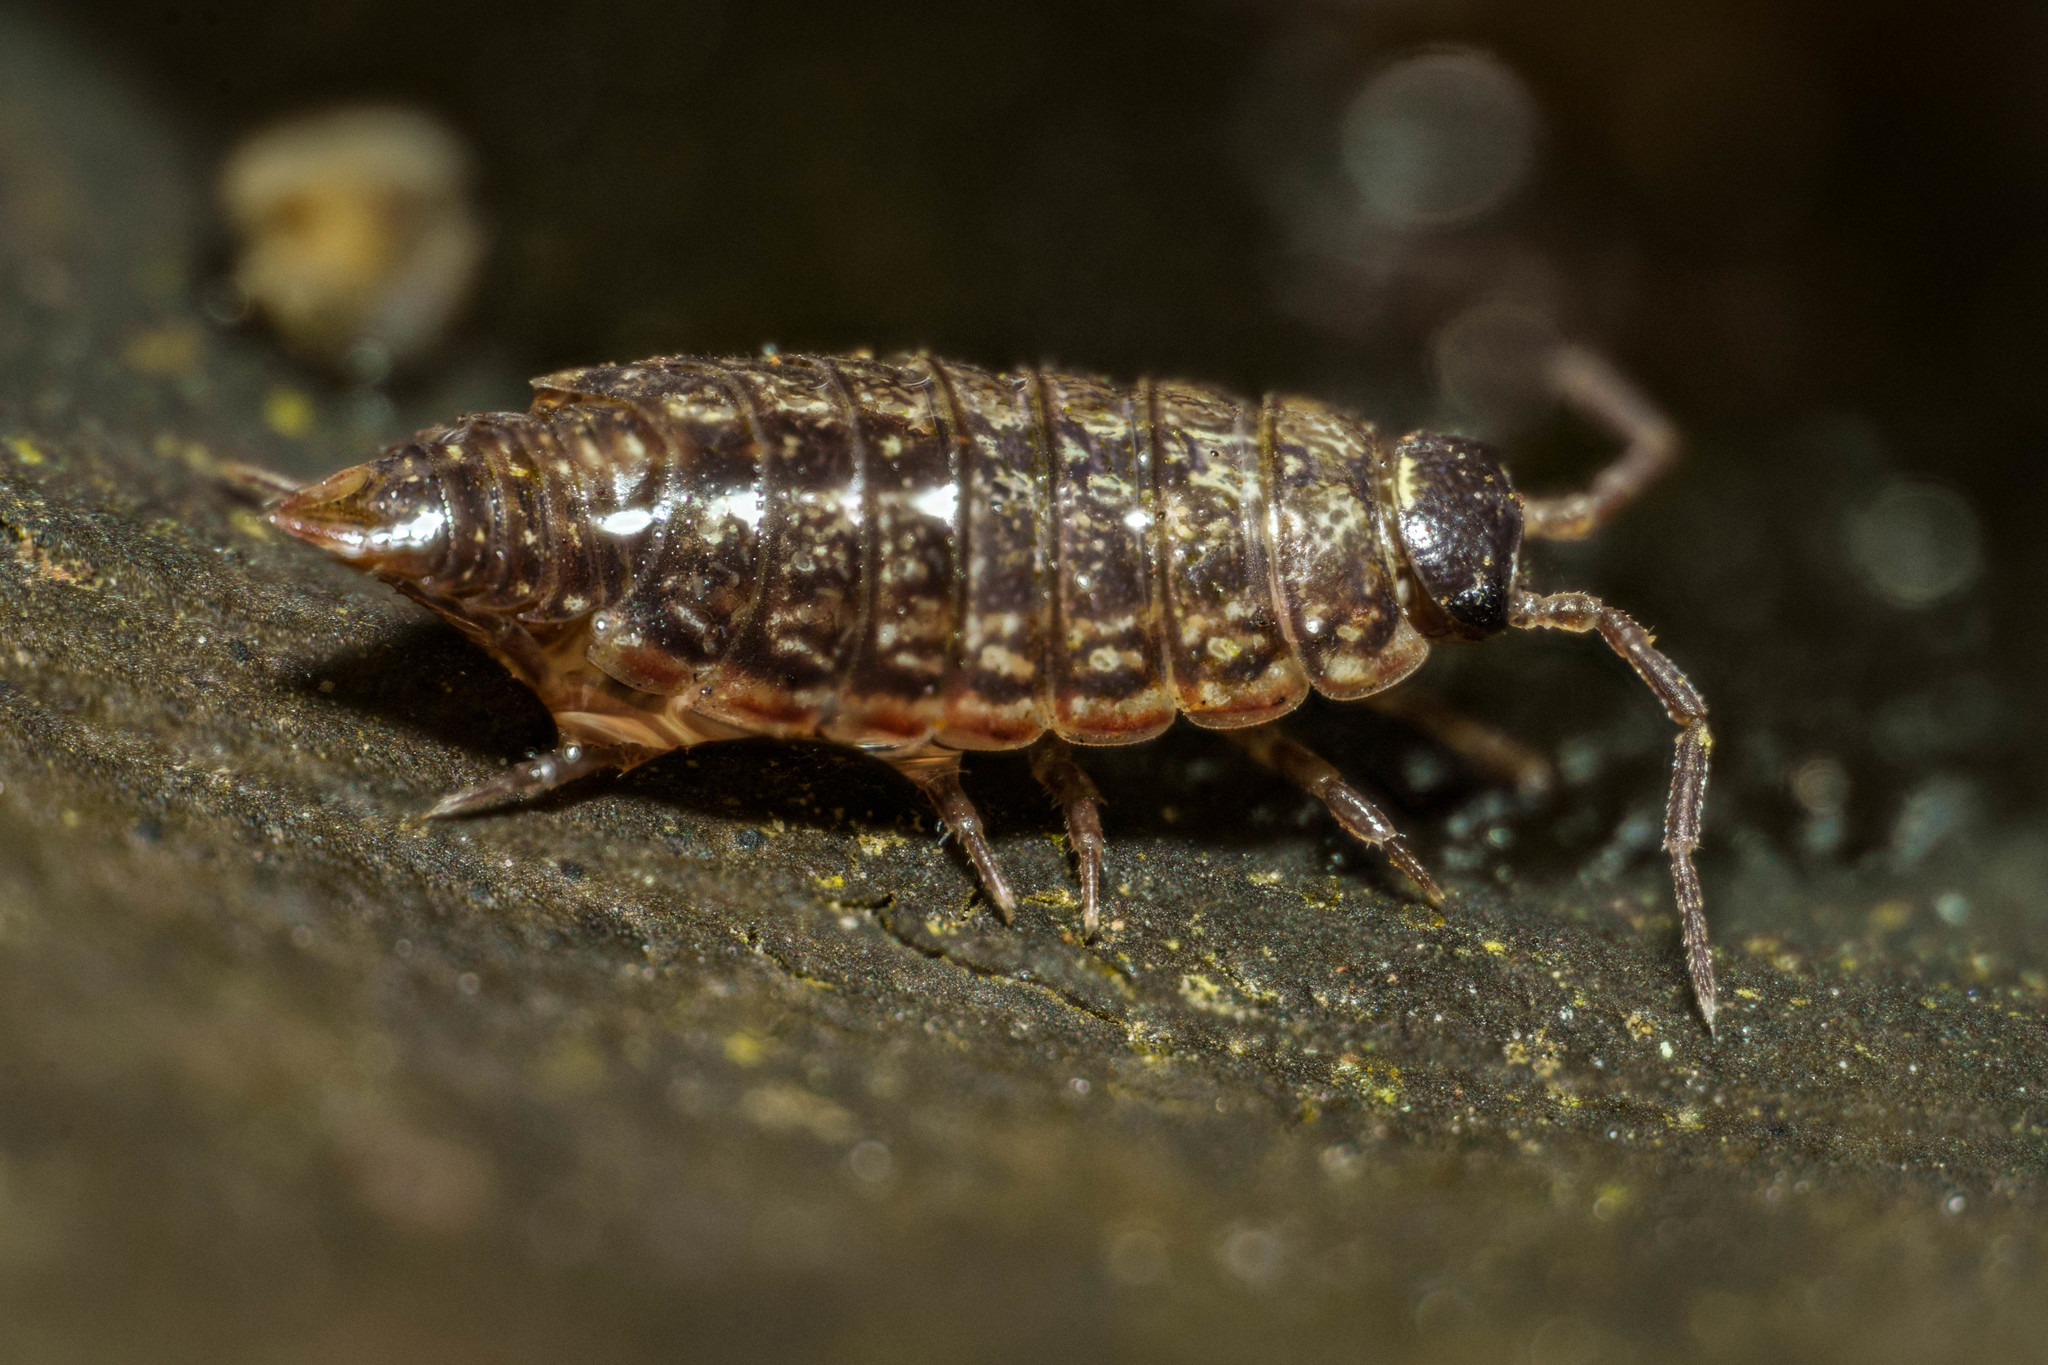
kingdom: Animalia
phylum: Arthropoda
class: Malacostraca
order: Isopoda
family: Philosciidae
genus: Philoscia
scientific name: Philoscia muscorum
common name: Common striped woodlouse
